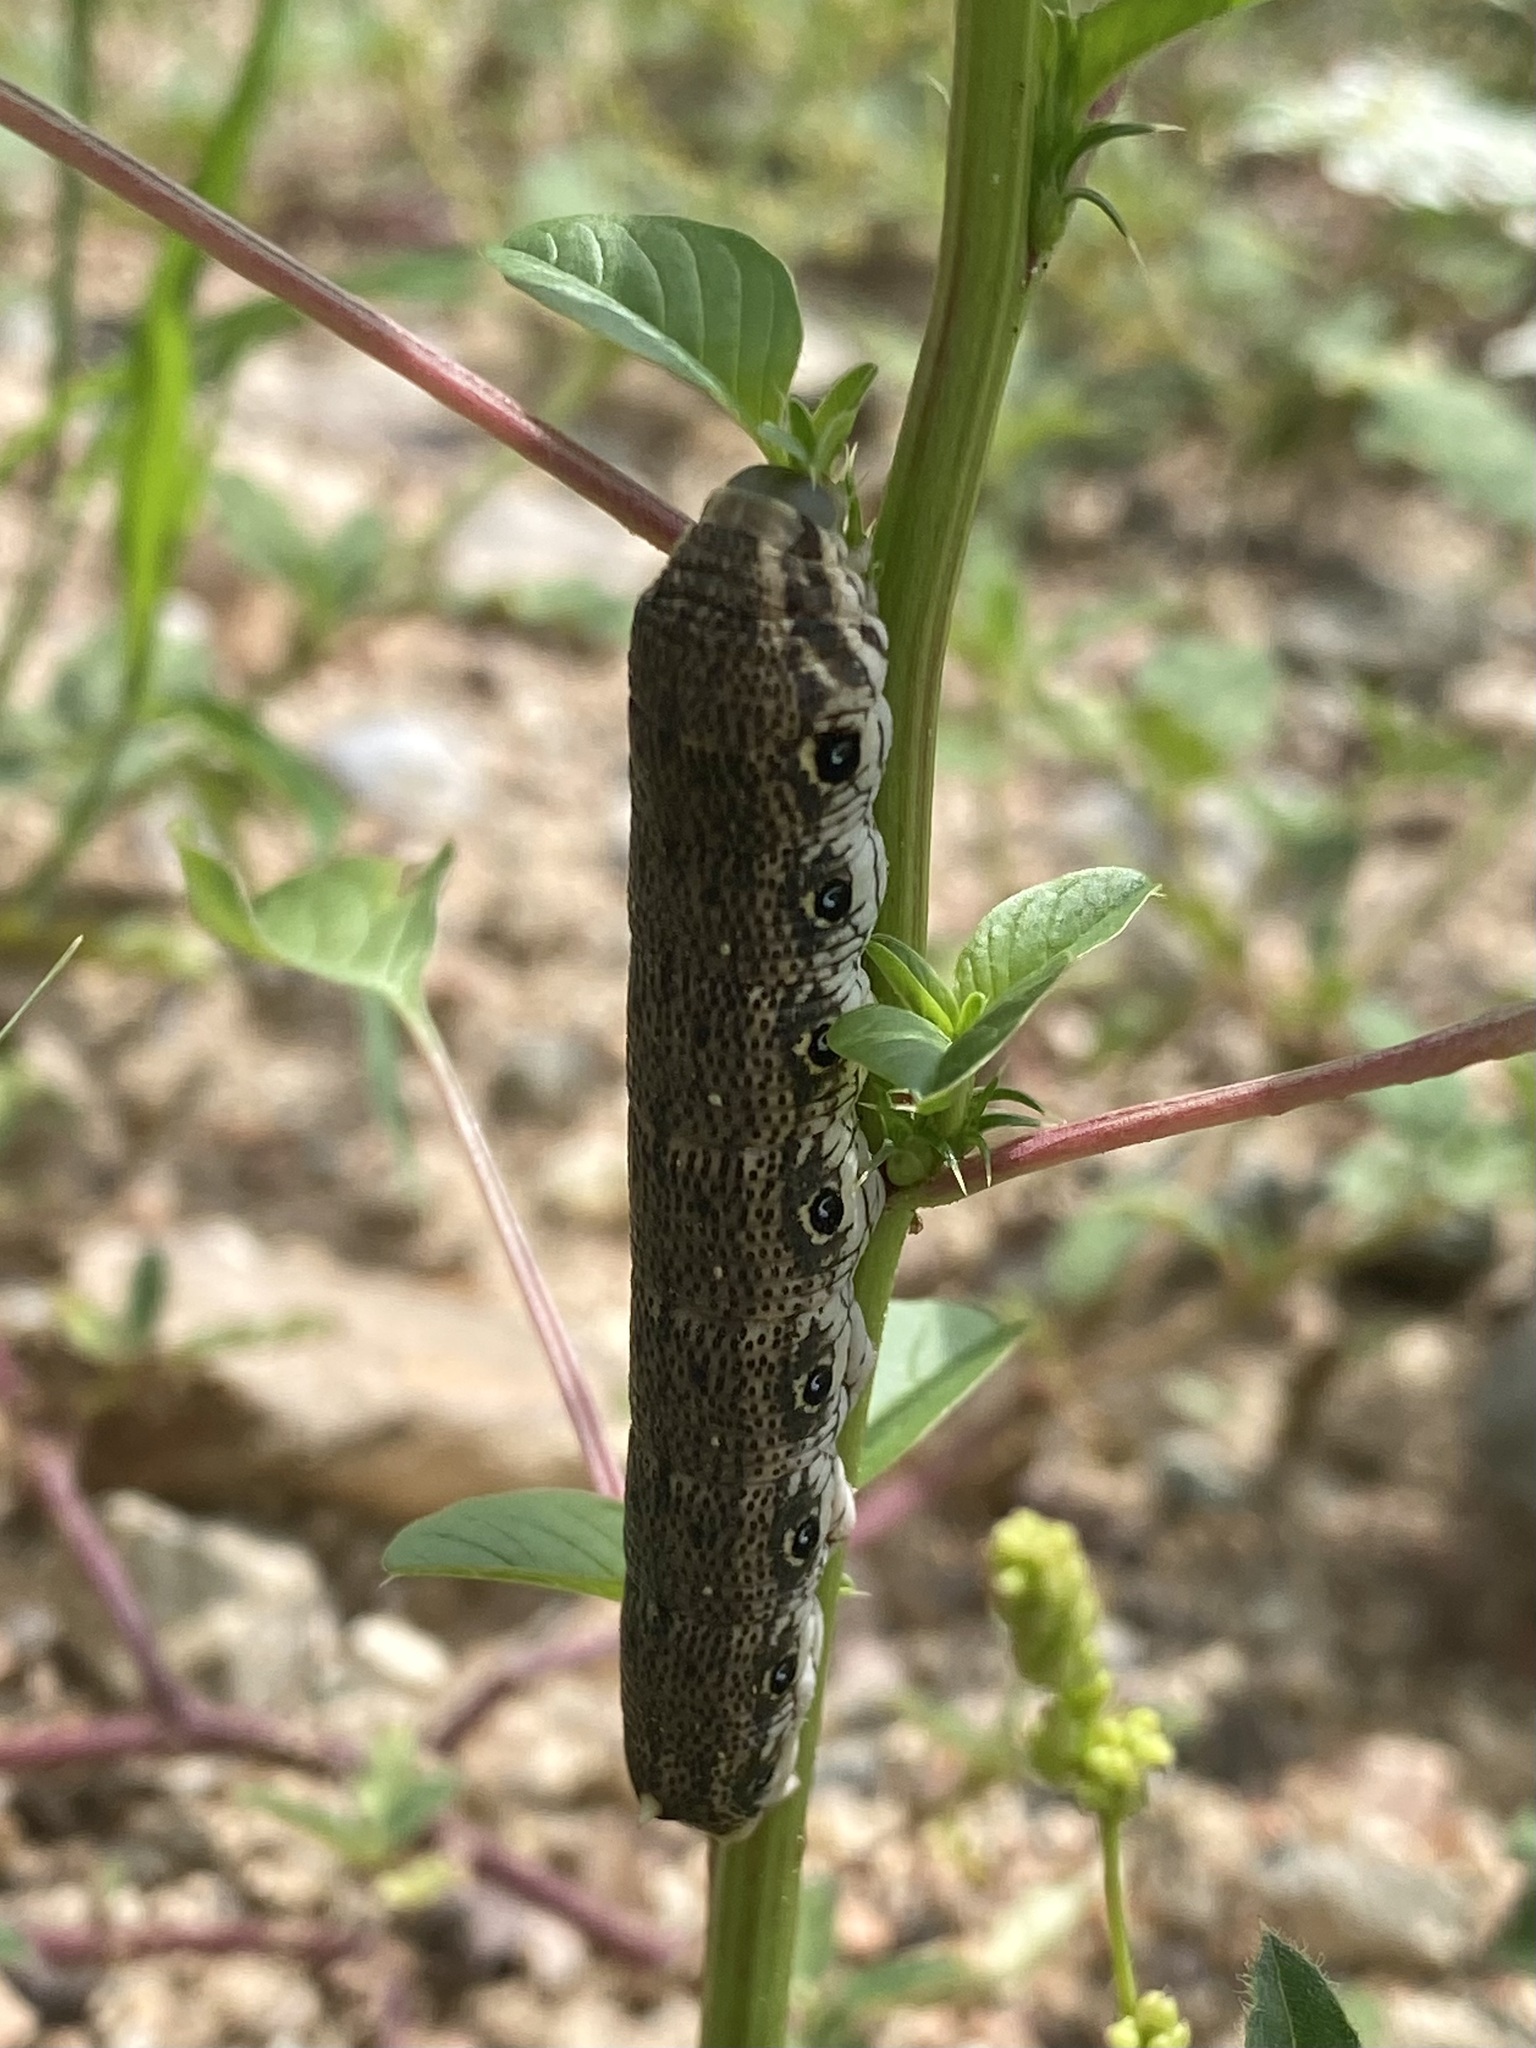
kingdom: Animalia
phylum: Arthropoda
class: Insecta
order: Lepidoptera
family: Sphingidae
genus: Proserpinus
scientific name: Proserpinus terlooii
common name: Terloo's sphinx
